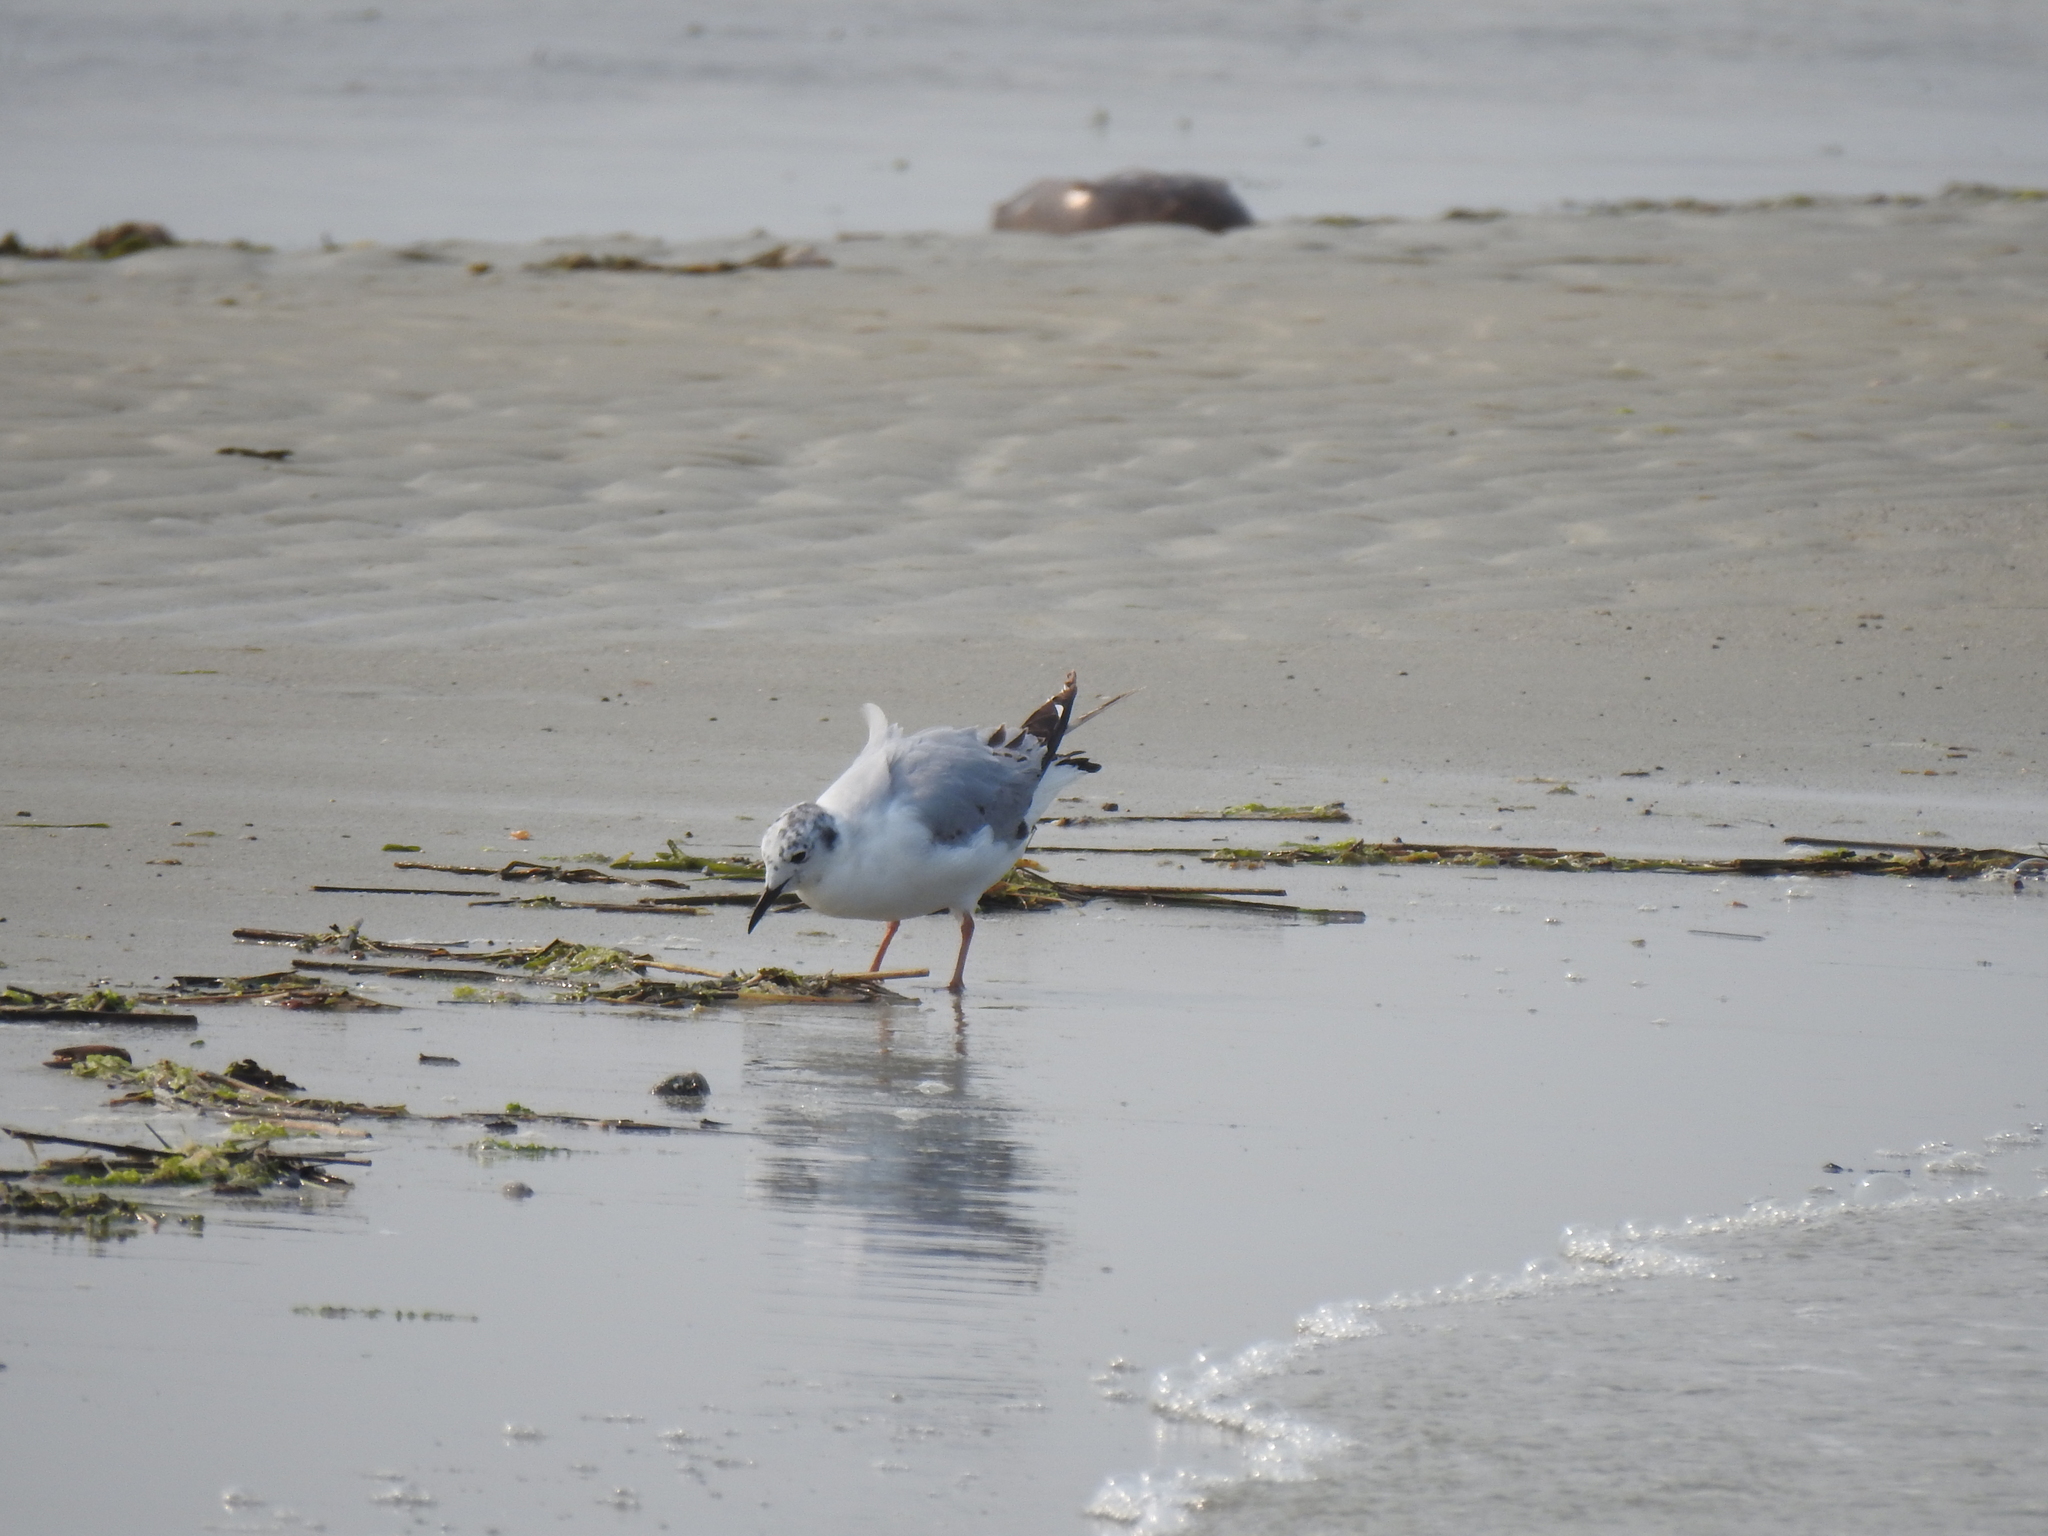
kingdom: Animalia
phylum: Chordata
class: Aves
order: Charadriiformes
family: Laridae
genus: Chroicocephalus
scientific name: Chroicocephalus philadelphia
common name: Bonaparte's gull
